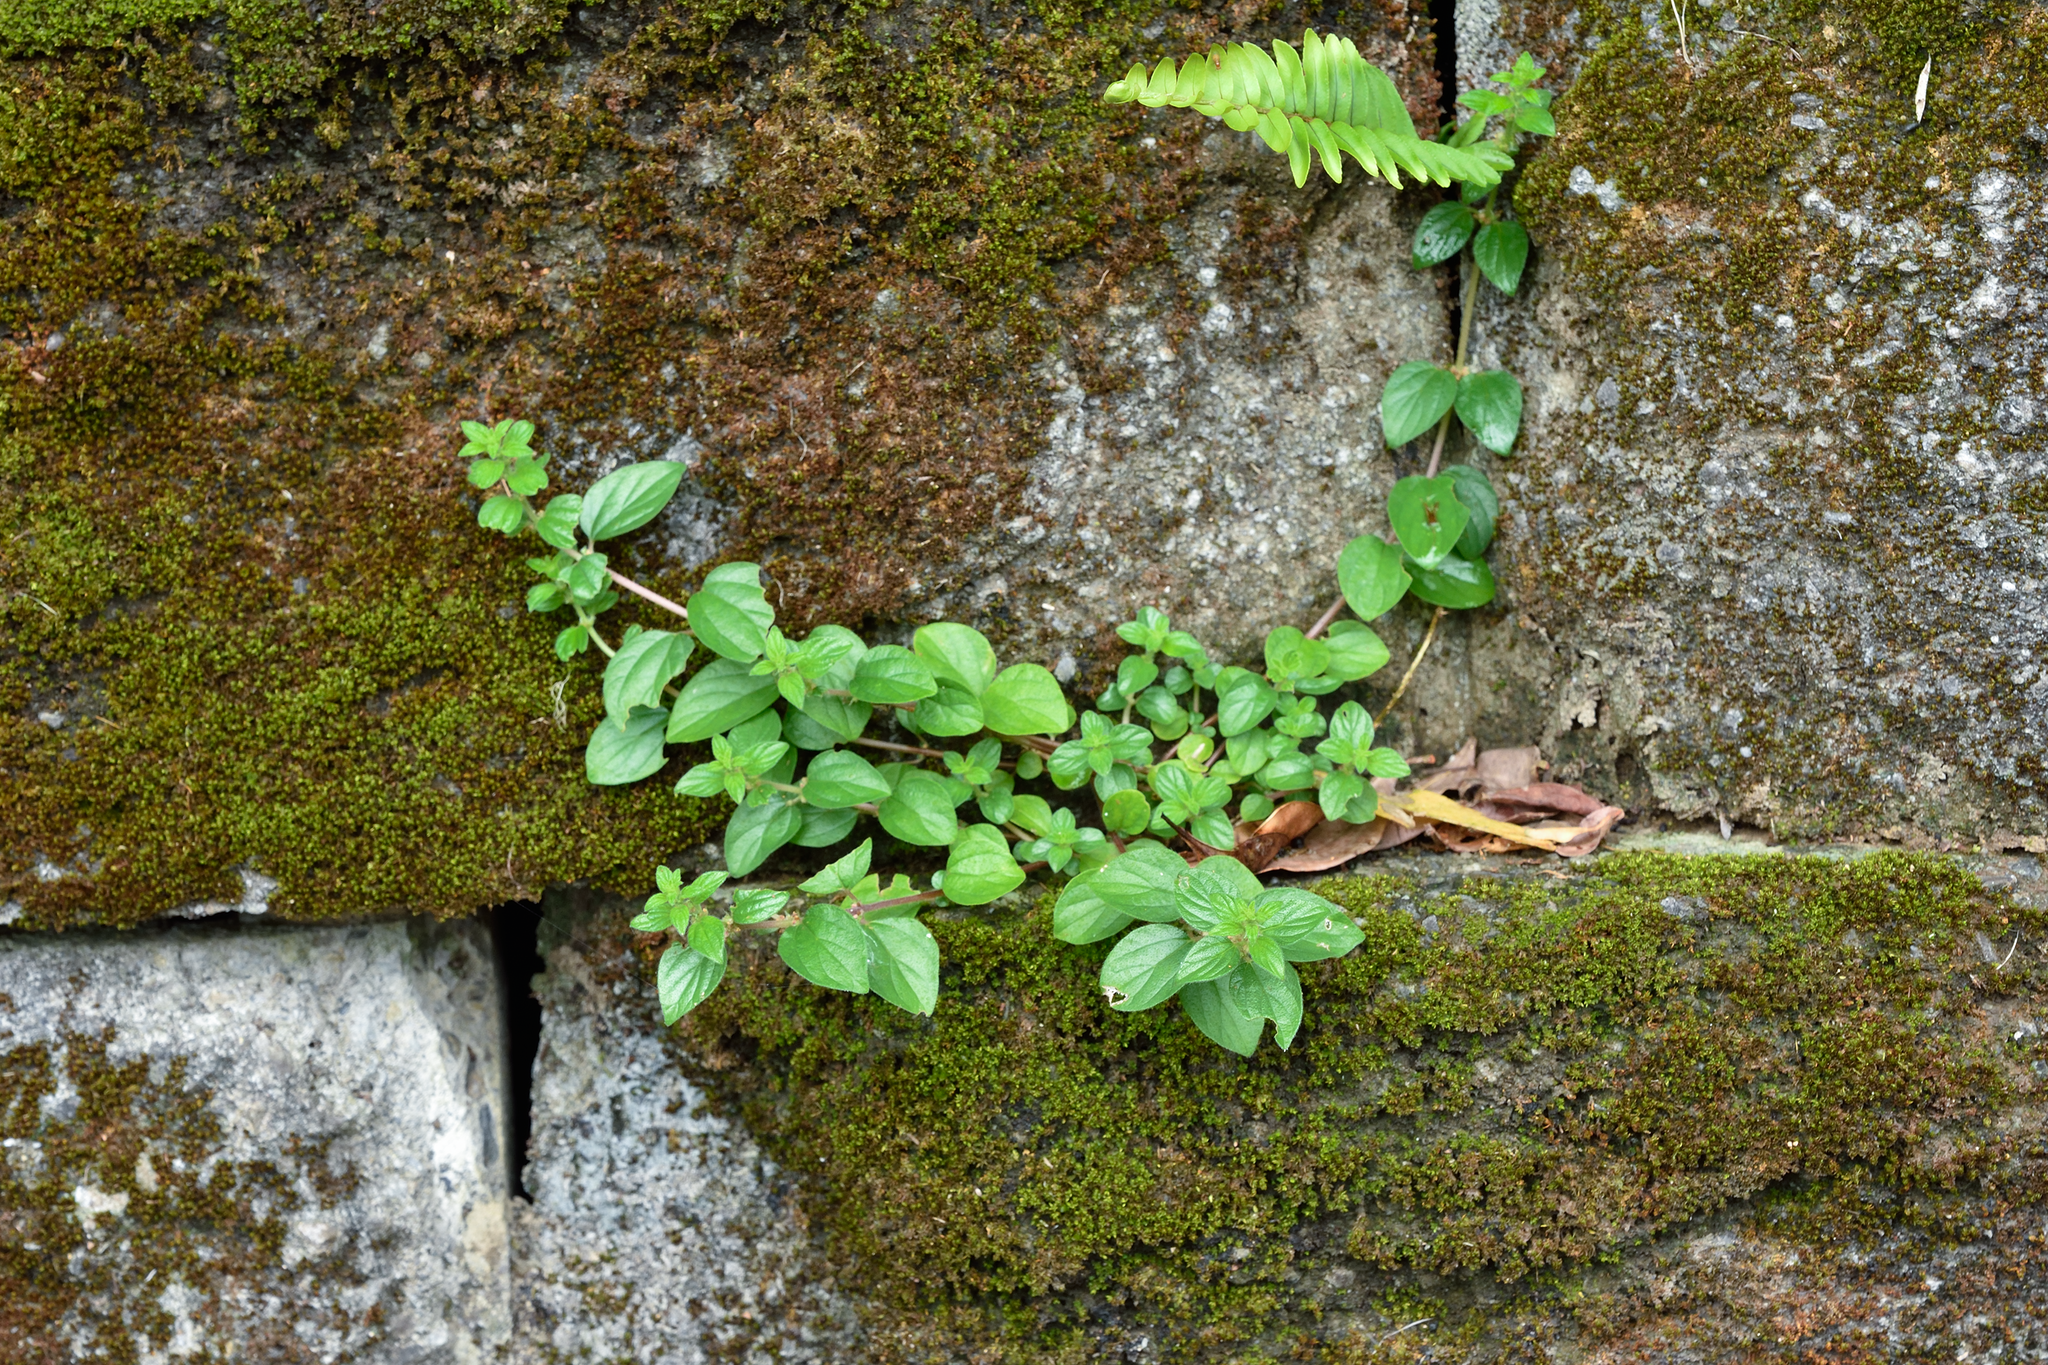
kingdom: Plantae
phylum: Tracheophyta
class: Magnoliopsida
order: Rosales
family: Urticaceae
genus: Pouzolzia
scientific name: Pouzolzia zeylanica
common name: Graceful pouzolzsbush
